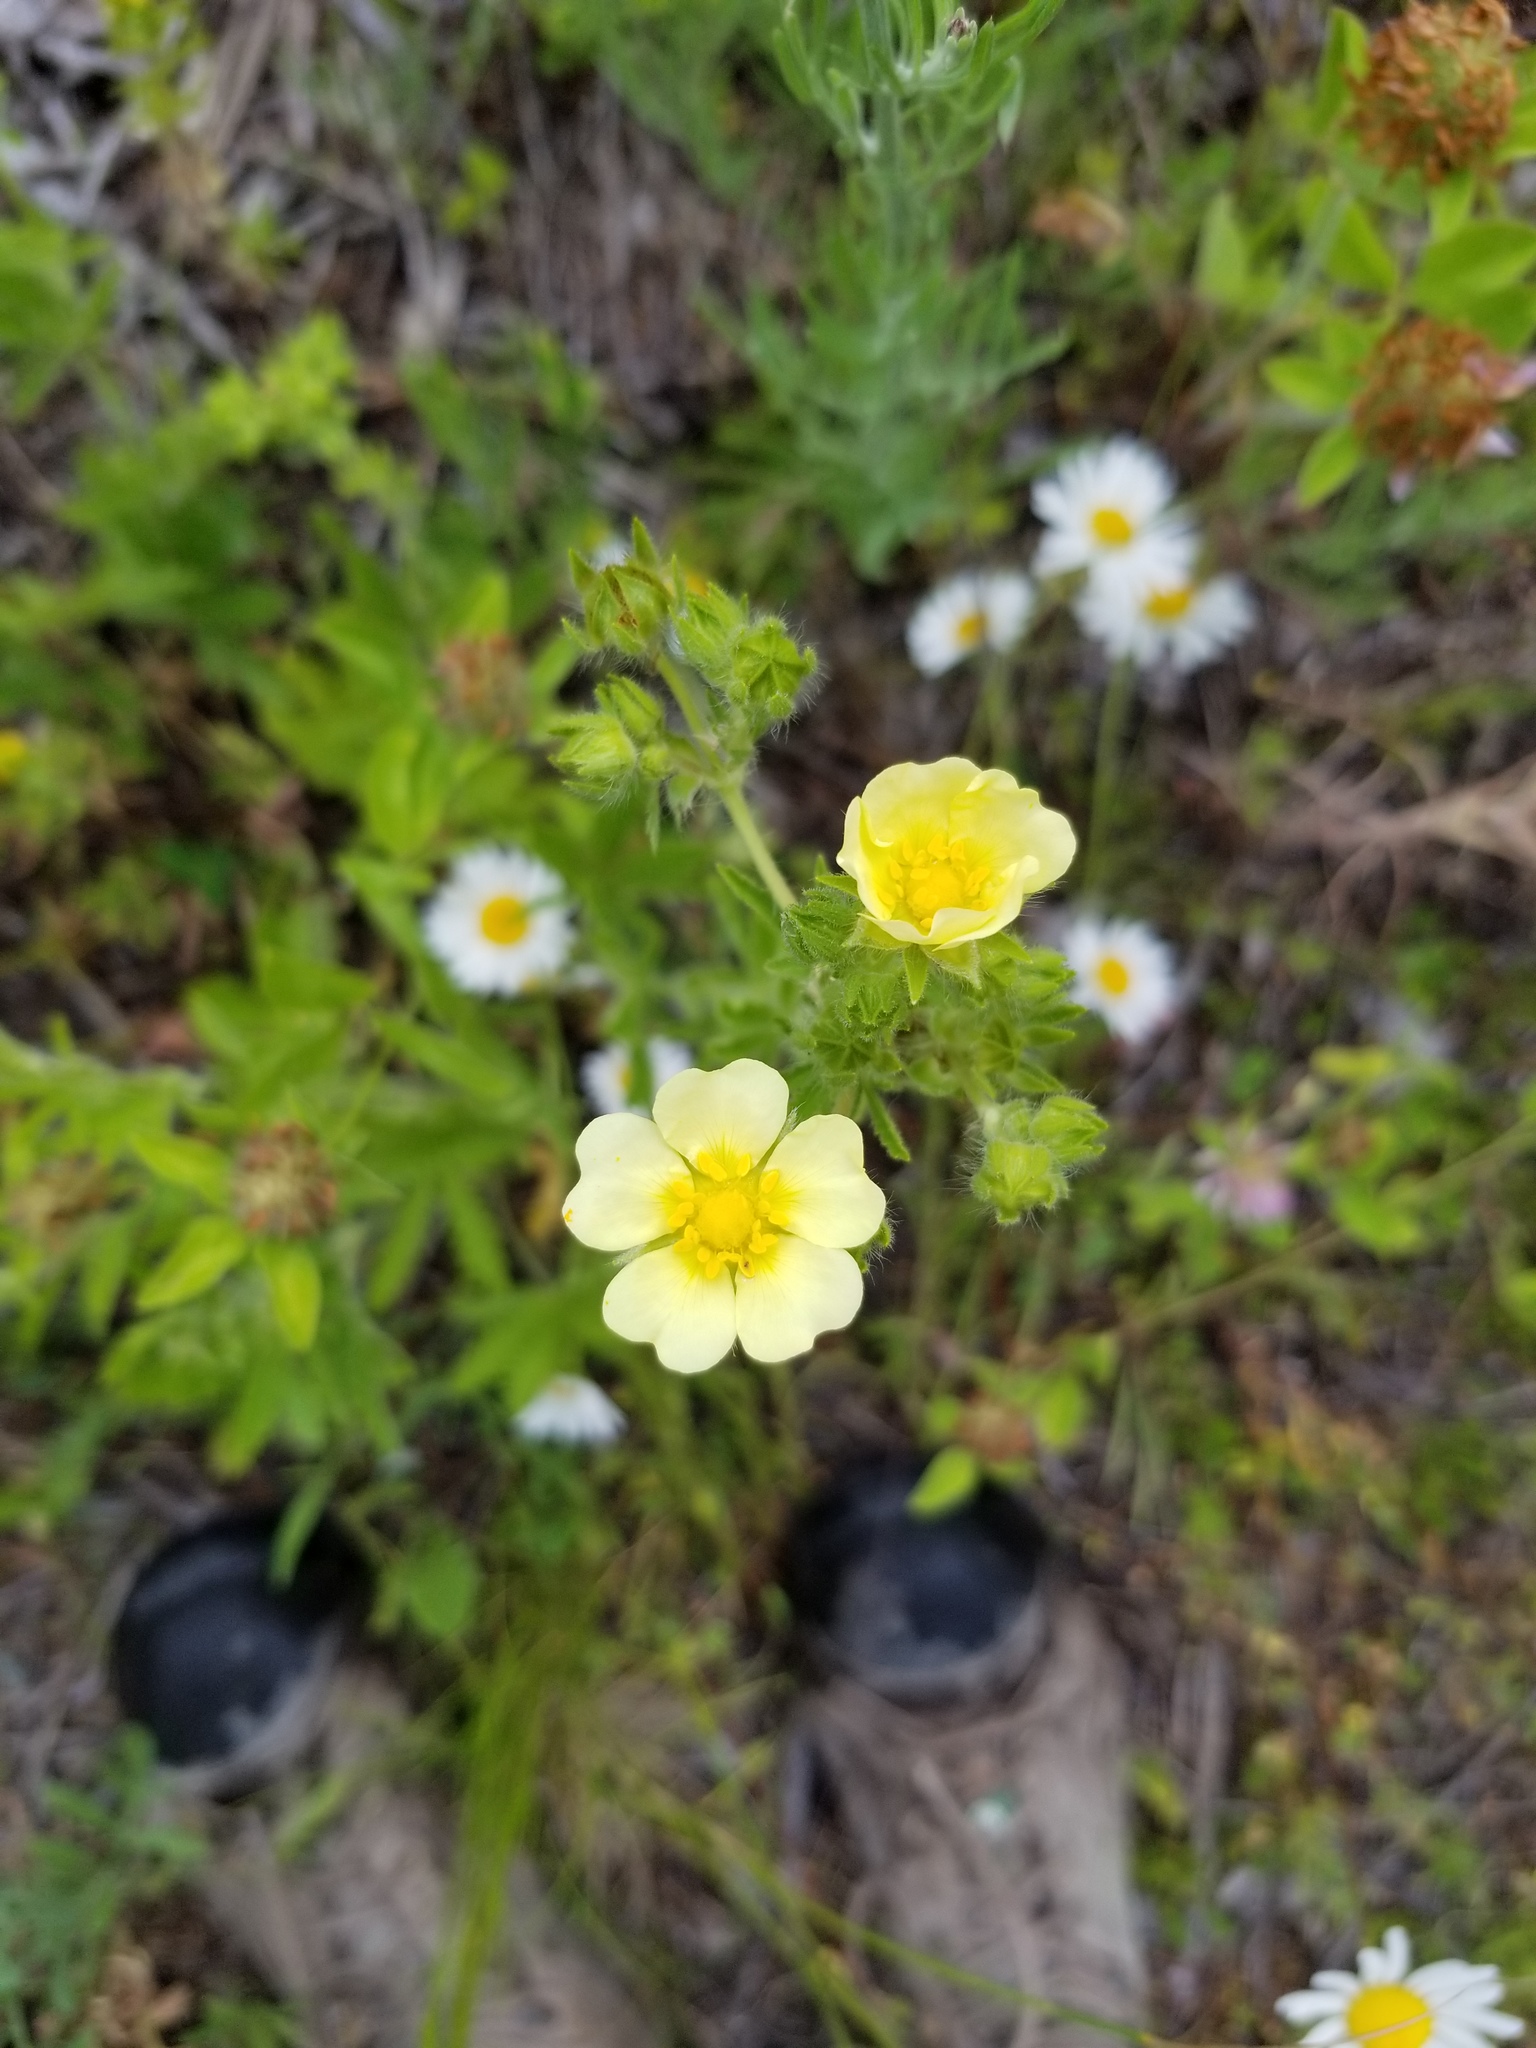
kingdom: Plantae
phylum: Tracheophyta
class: Magnoliopsida
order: Rosales
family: Rosaceae
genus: Potentilla
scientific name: Potentilla recta
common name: Sulphur cinquefoil
